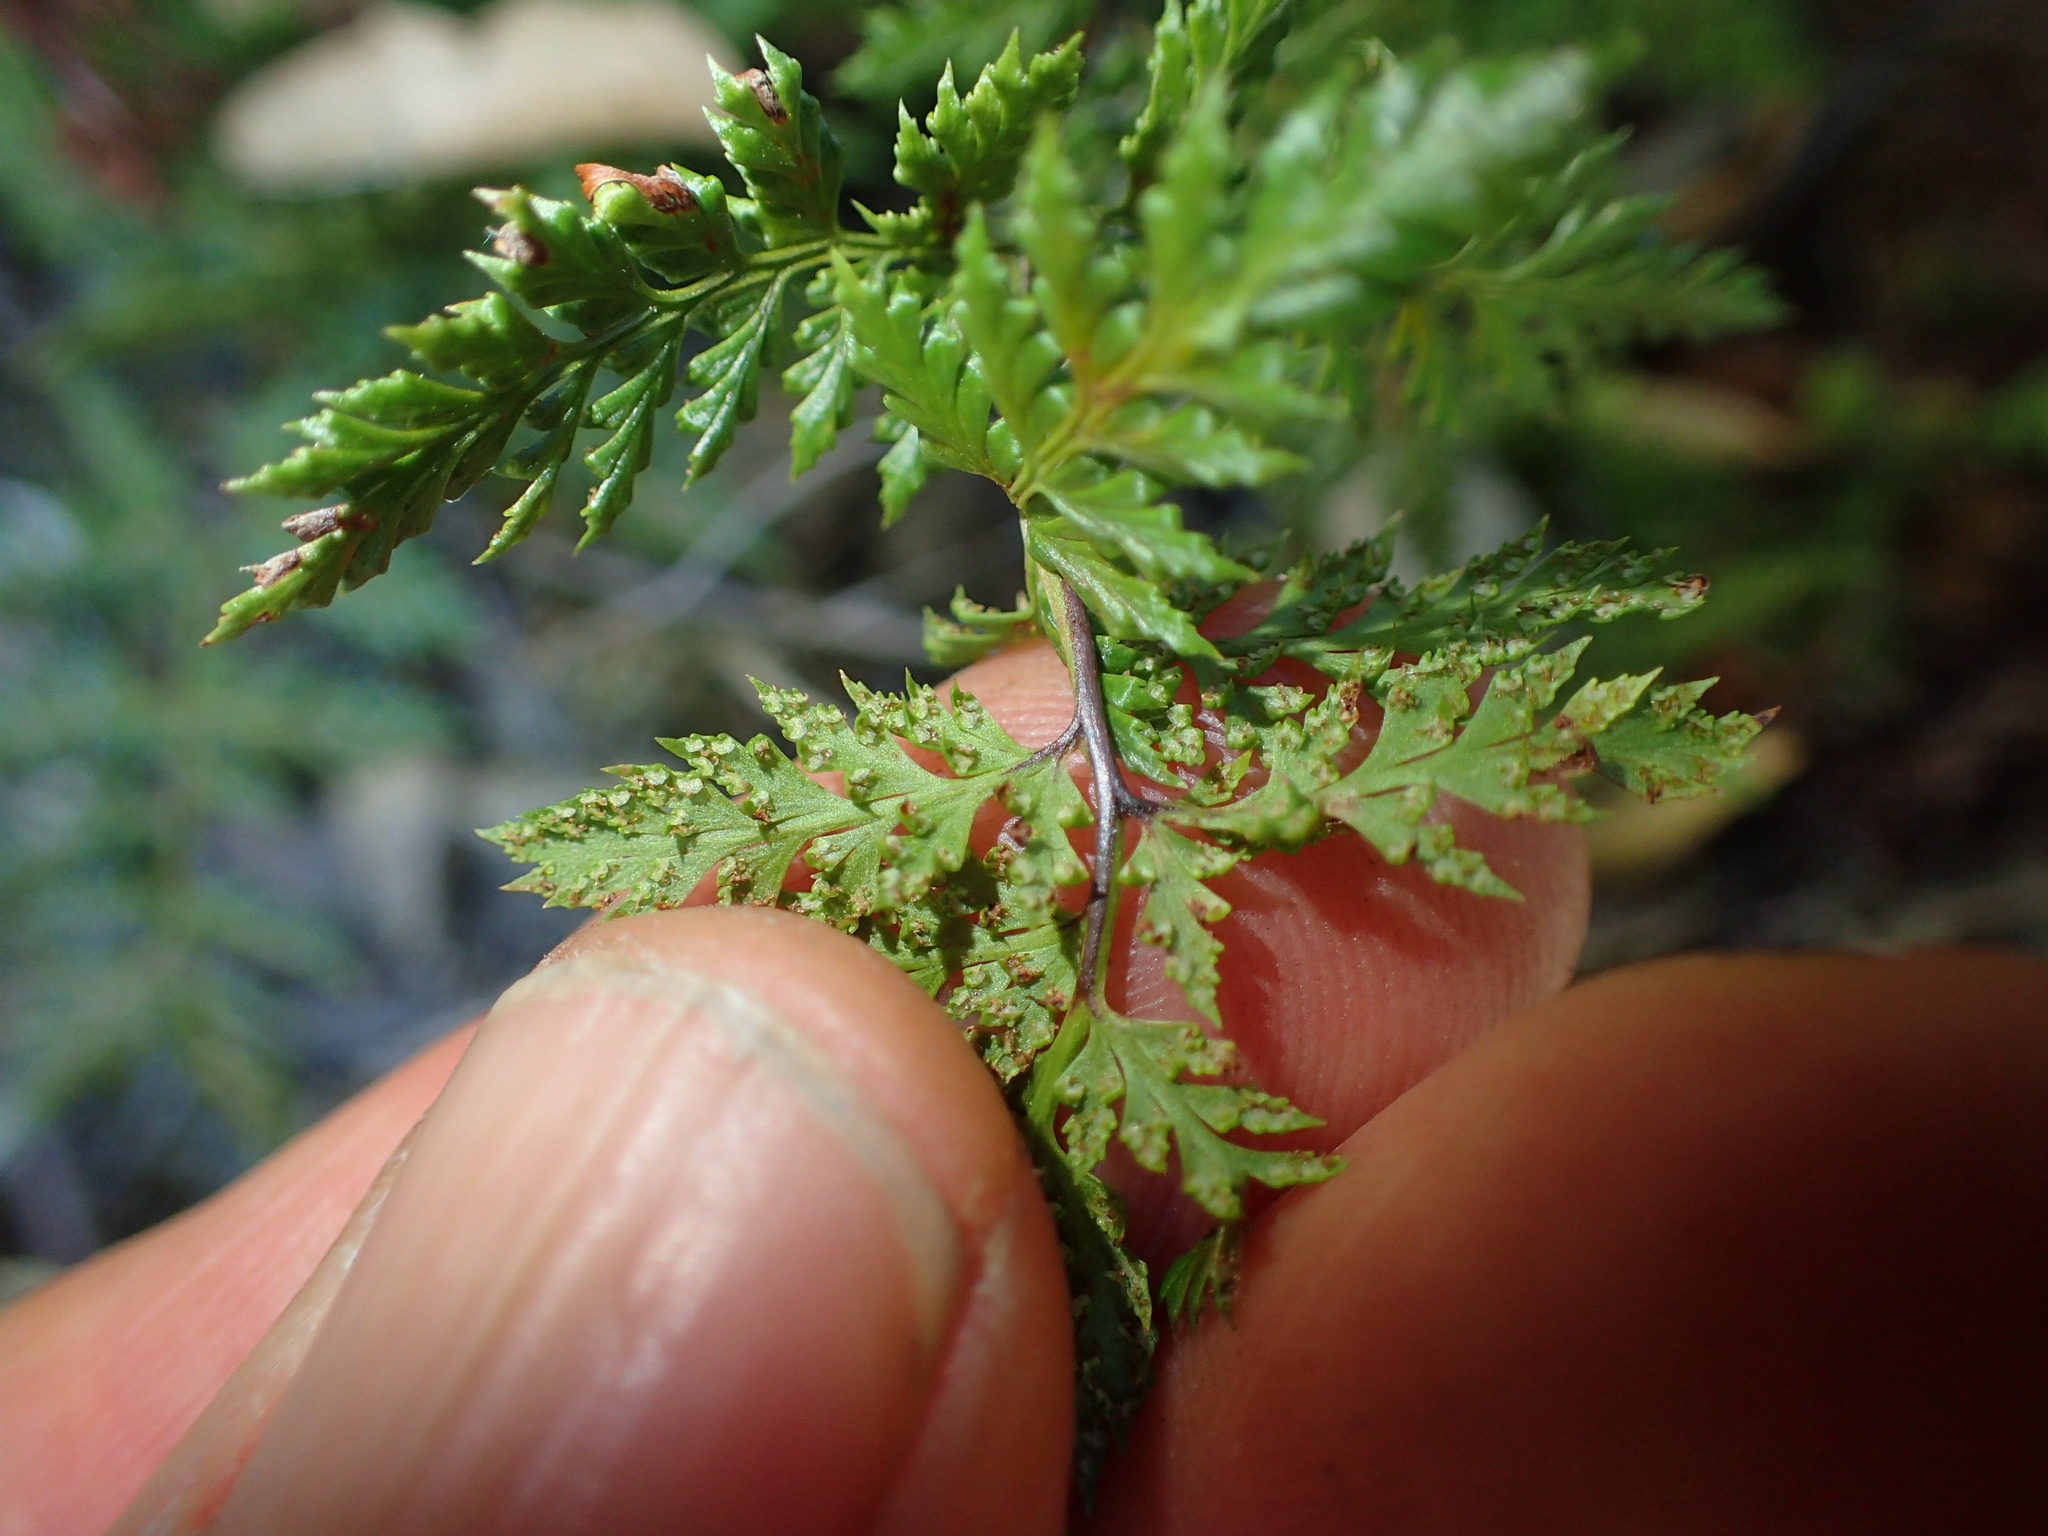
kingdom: Plantae
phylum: Tracheophyta
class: Polypodiopsida
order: Polypodiales
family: Pteridaceae
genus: Aspidotis
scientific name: Aspidotis californica
